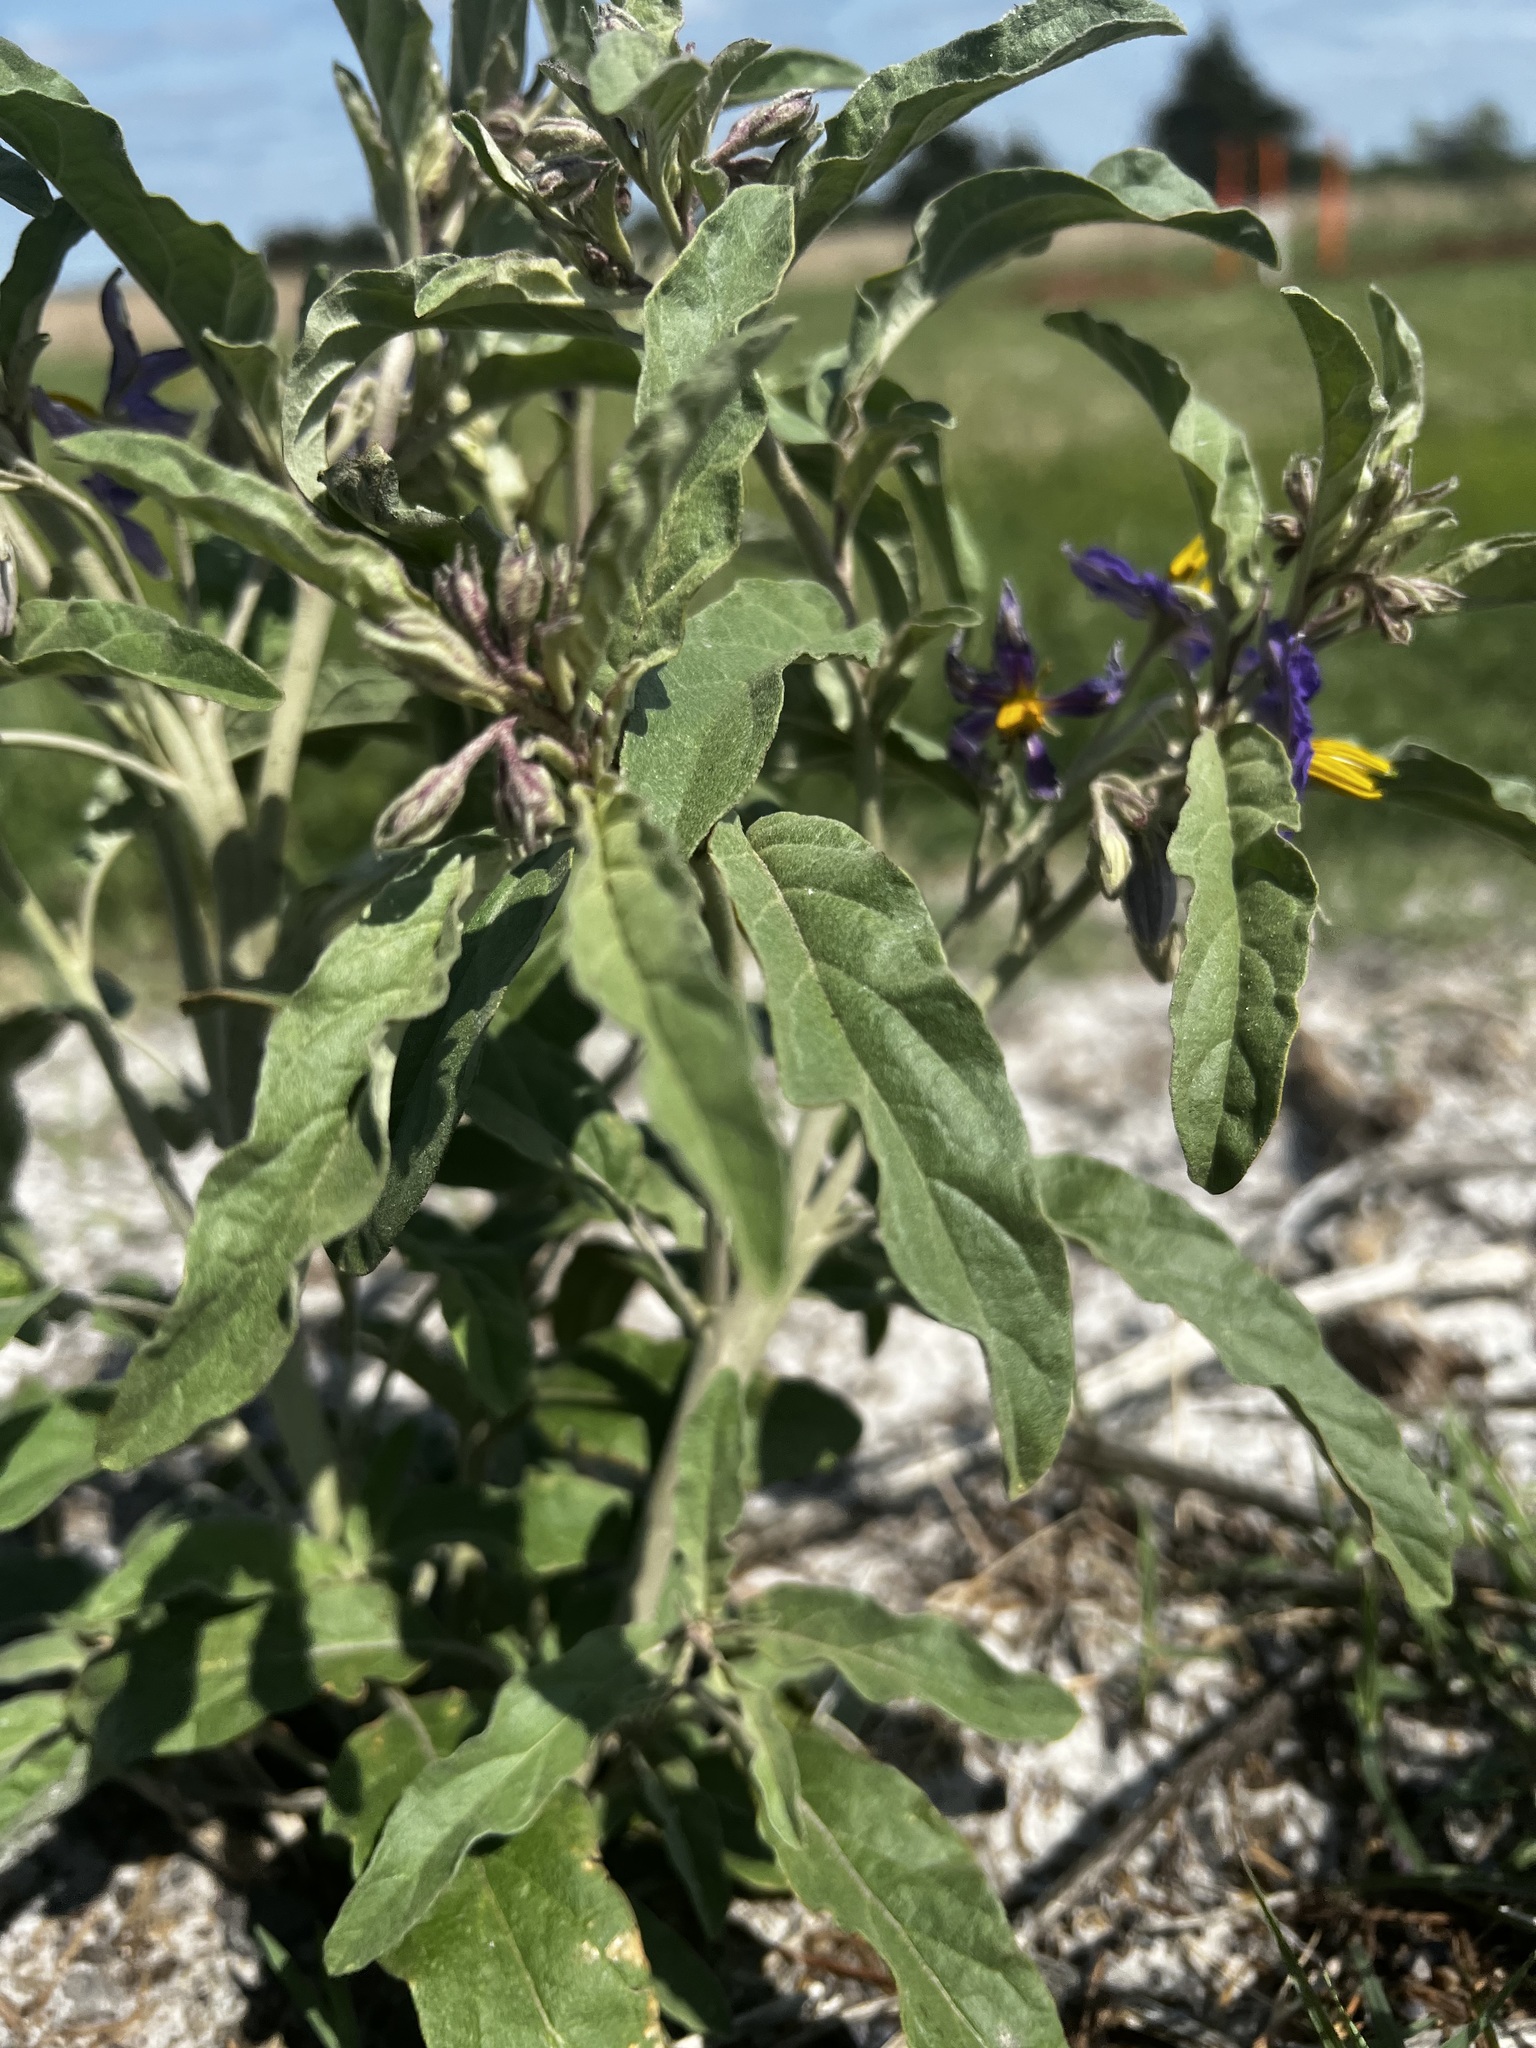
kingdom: Plantae
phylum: Tracheophyta
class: Magnoliopsida
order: Solanales
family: Solanaceae
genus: Solanum
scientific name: Solanum elaeagnifolium
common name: Silverleaf nightshade
